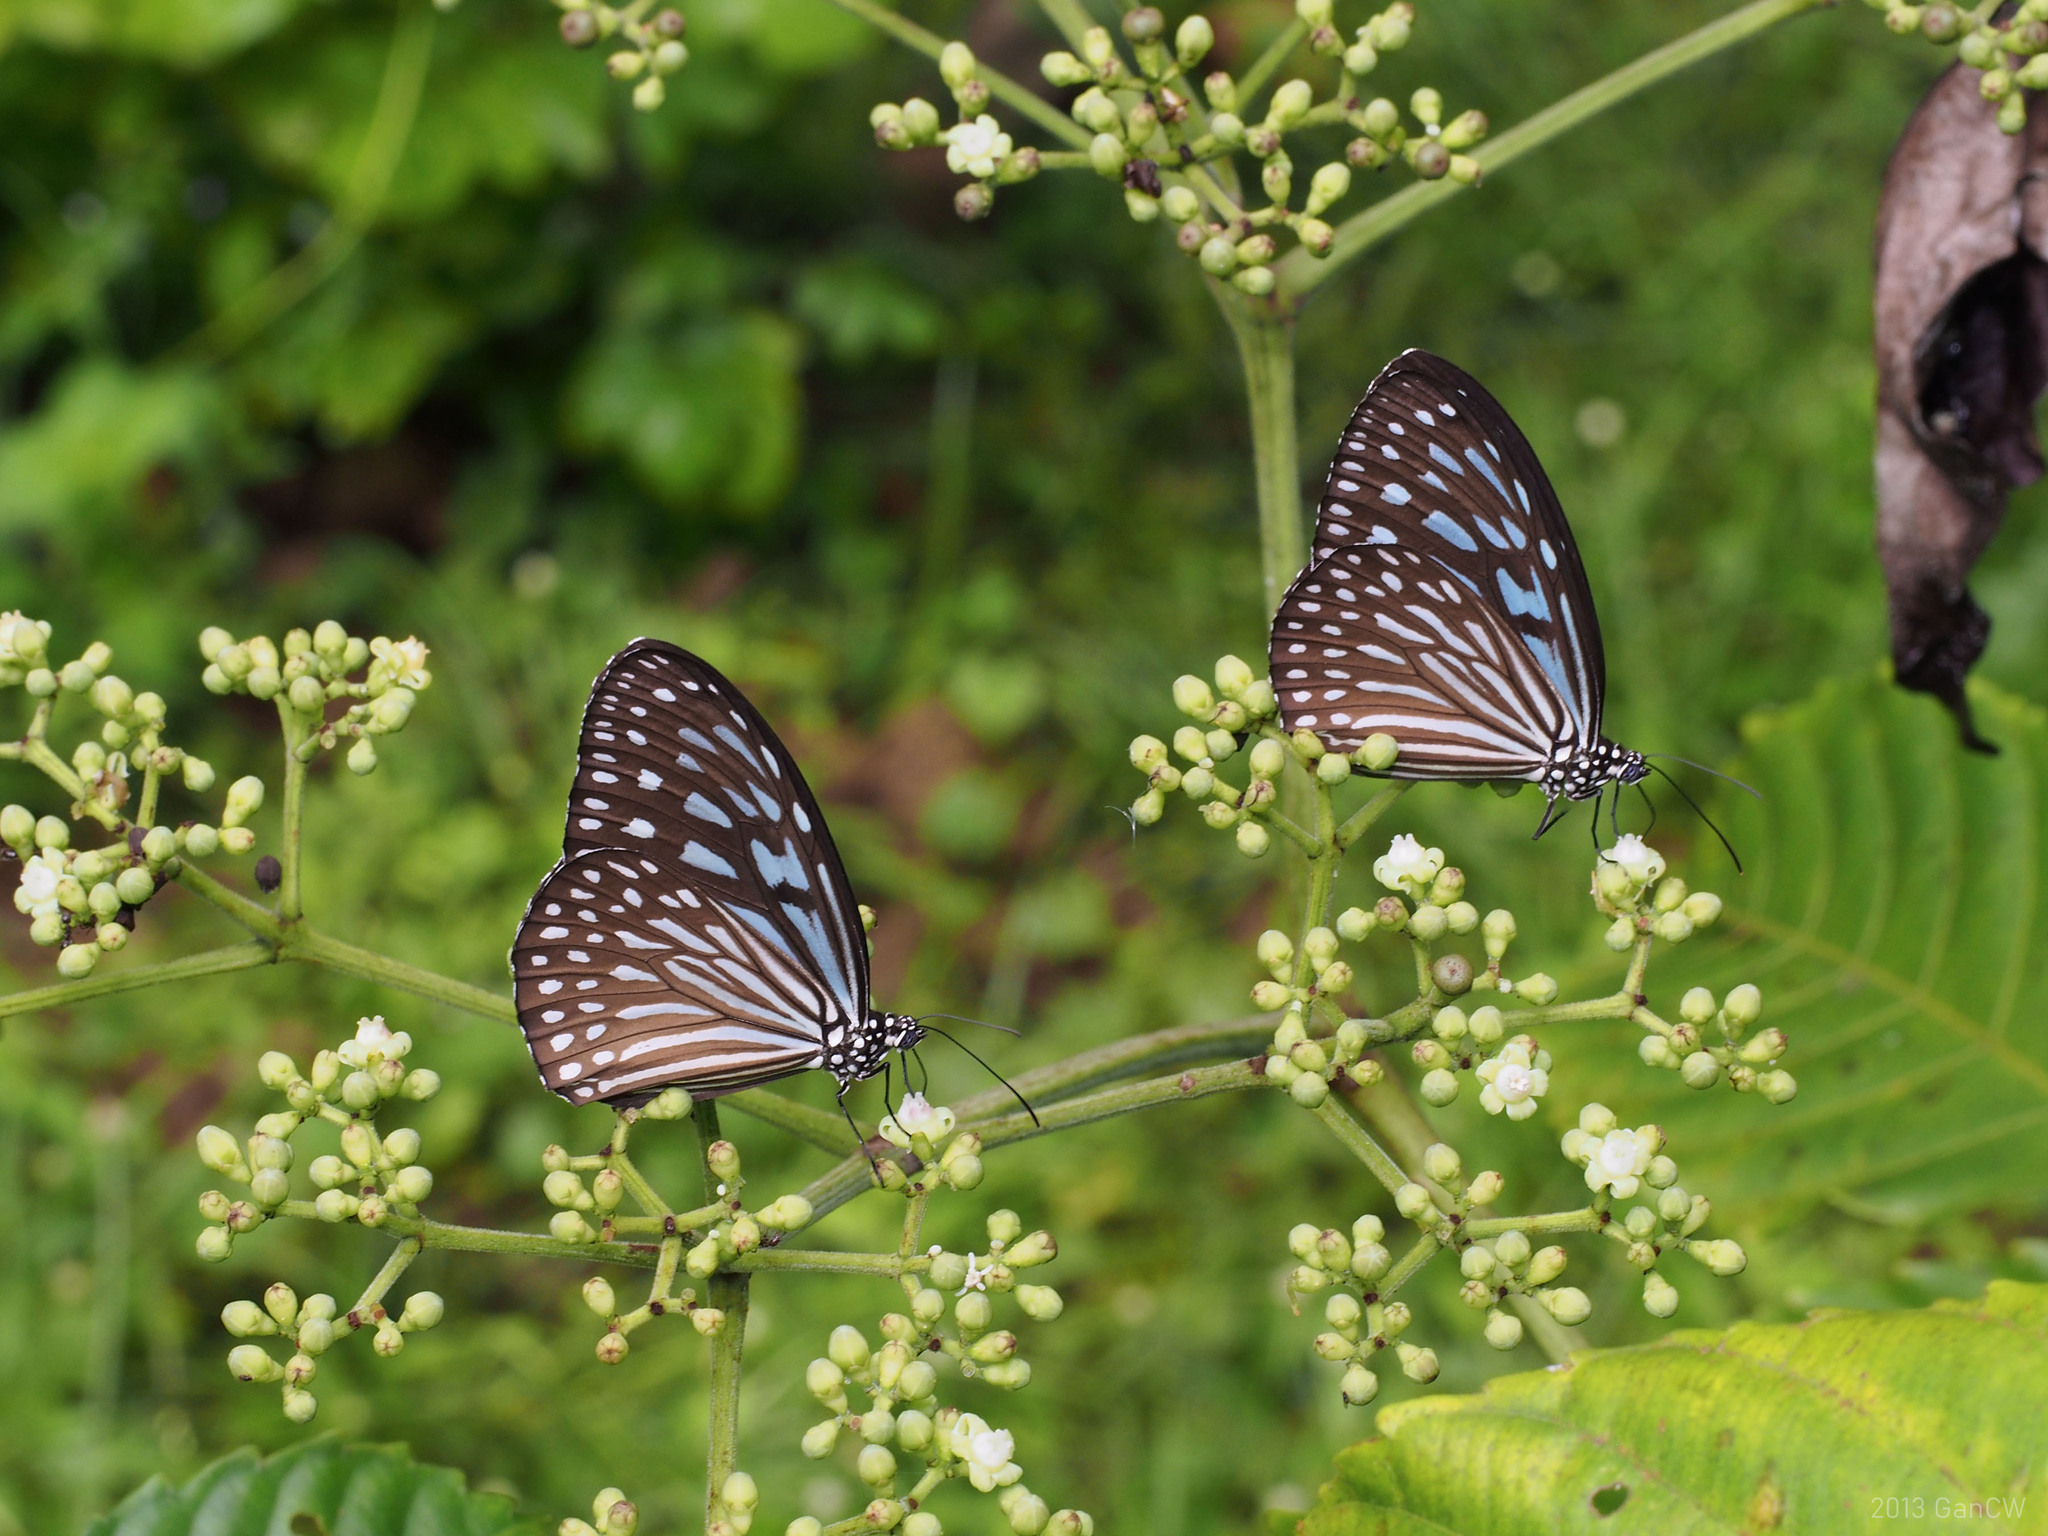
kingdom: Animalia
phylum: Arthropoda
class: Insecta
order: Lepidoptera
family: Nymphalidae
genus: Ideopsis
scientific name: Ideopsis vulgaris
